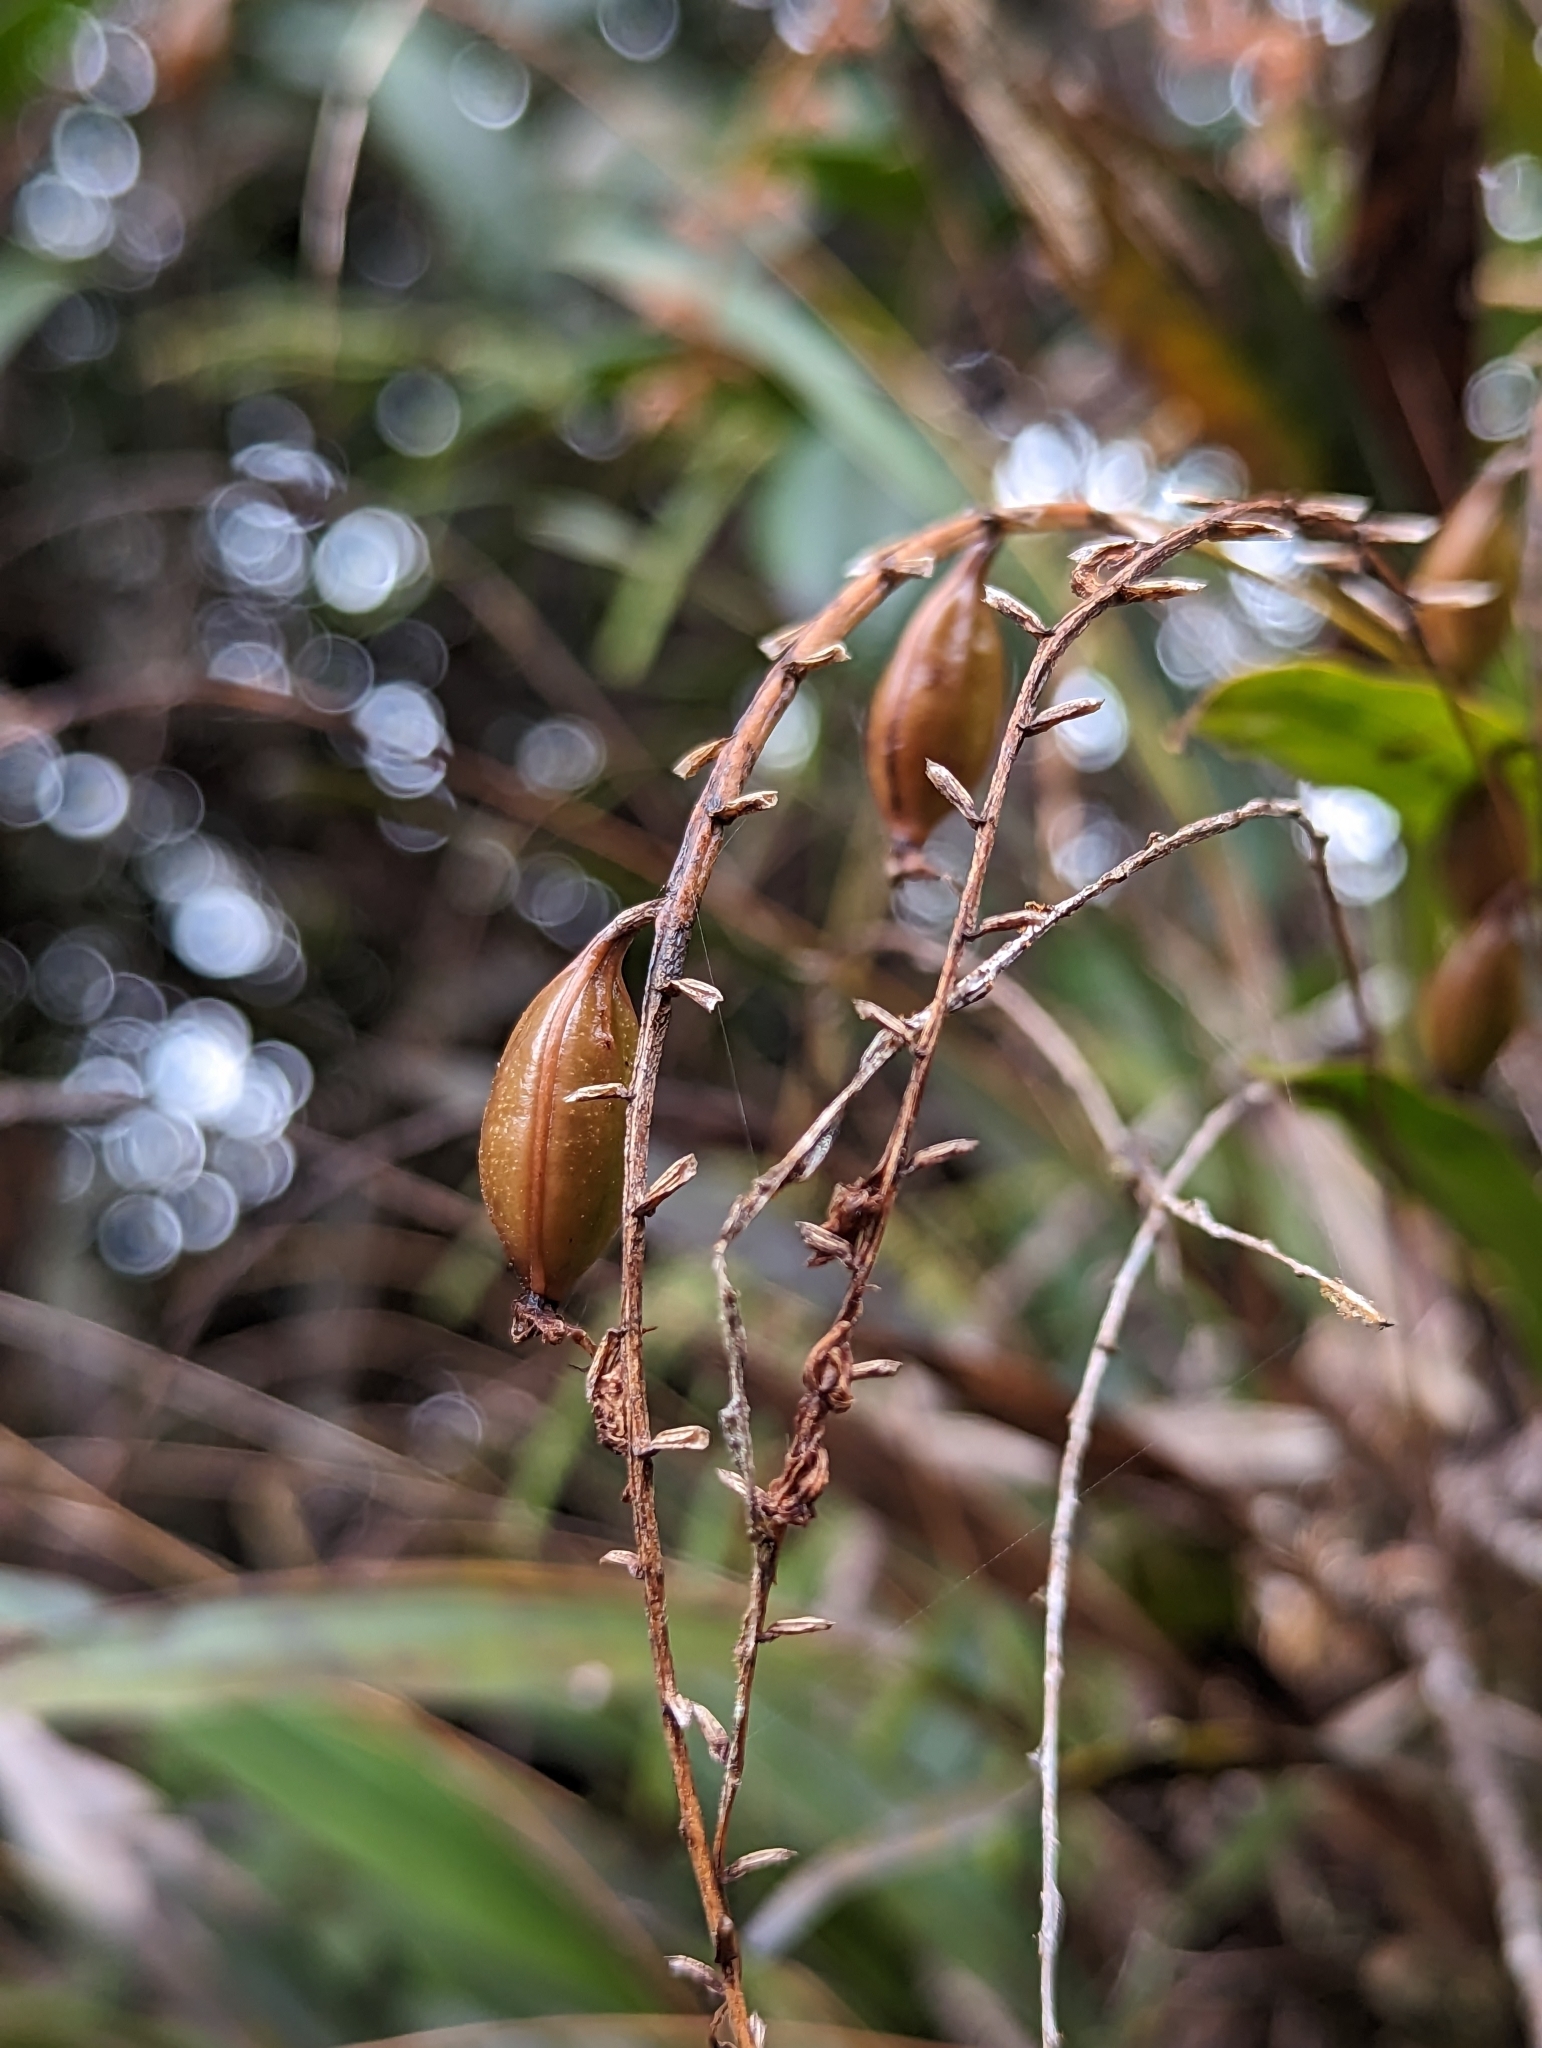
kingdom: Plantae
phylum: Tracheophyta
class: Liliopsida
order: Asparagales
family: Orchidaceae
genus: Coelogyne
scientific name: Coelogyne
